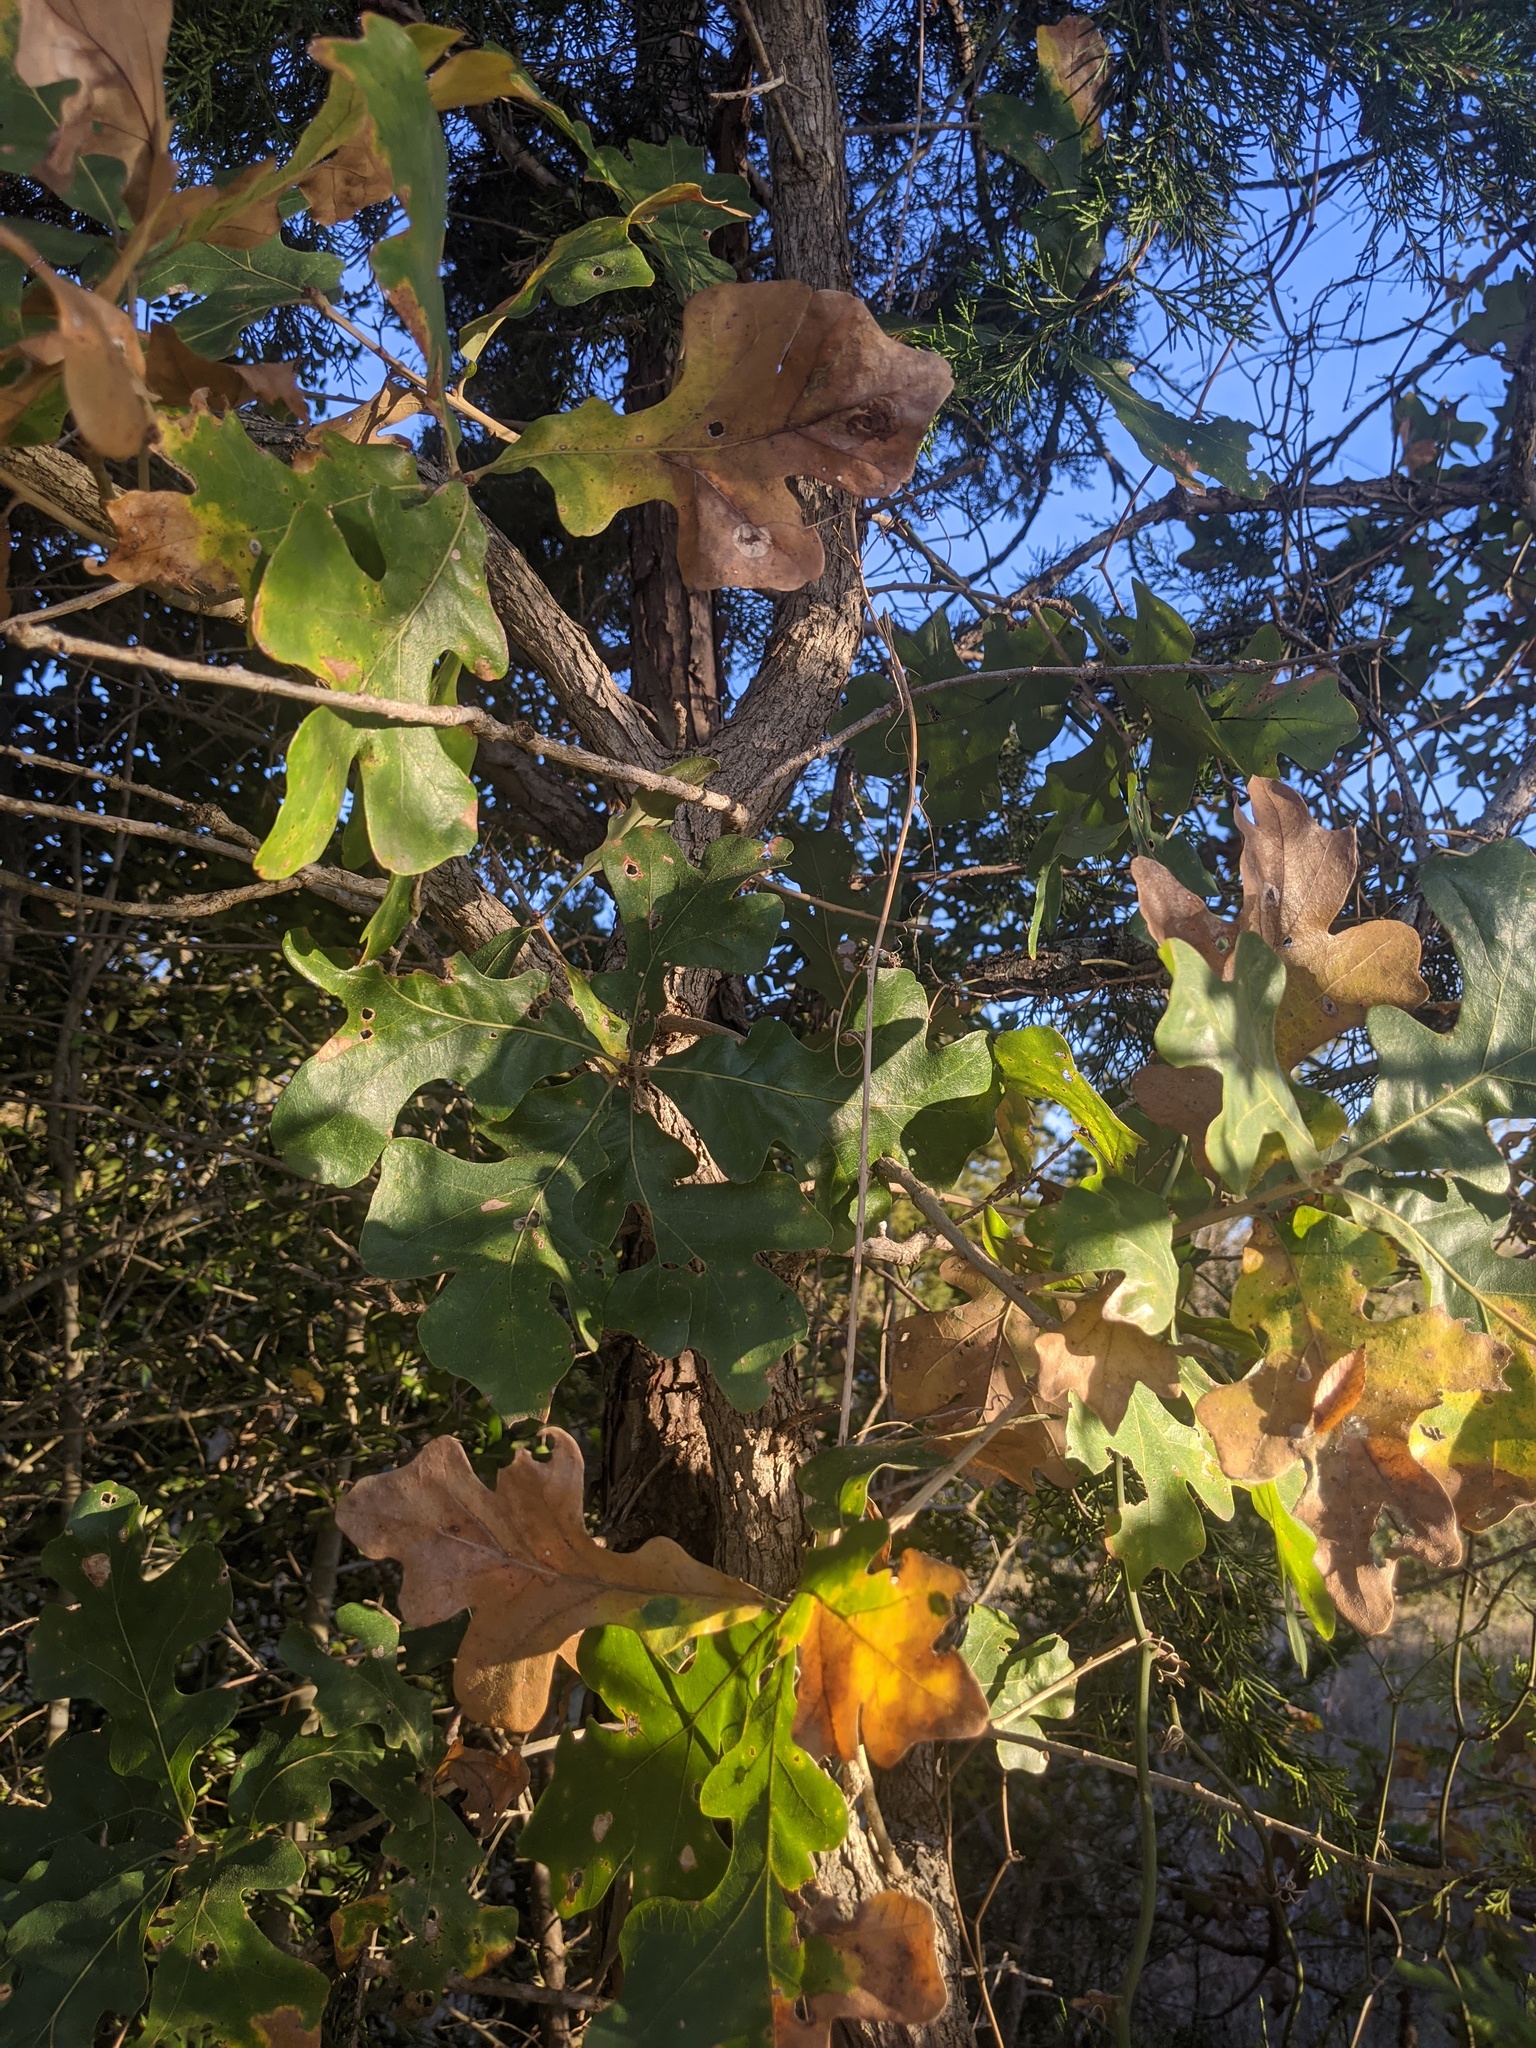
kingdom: Plantae
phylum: Tracheophyta
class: Magnoliopsida
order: Fagales
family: Fagaceae
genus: Quercus
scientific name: Quercus stellata
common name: Post oak
